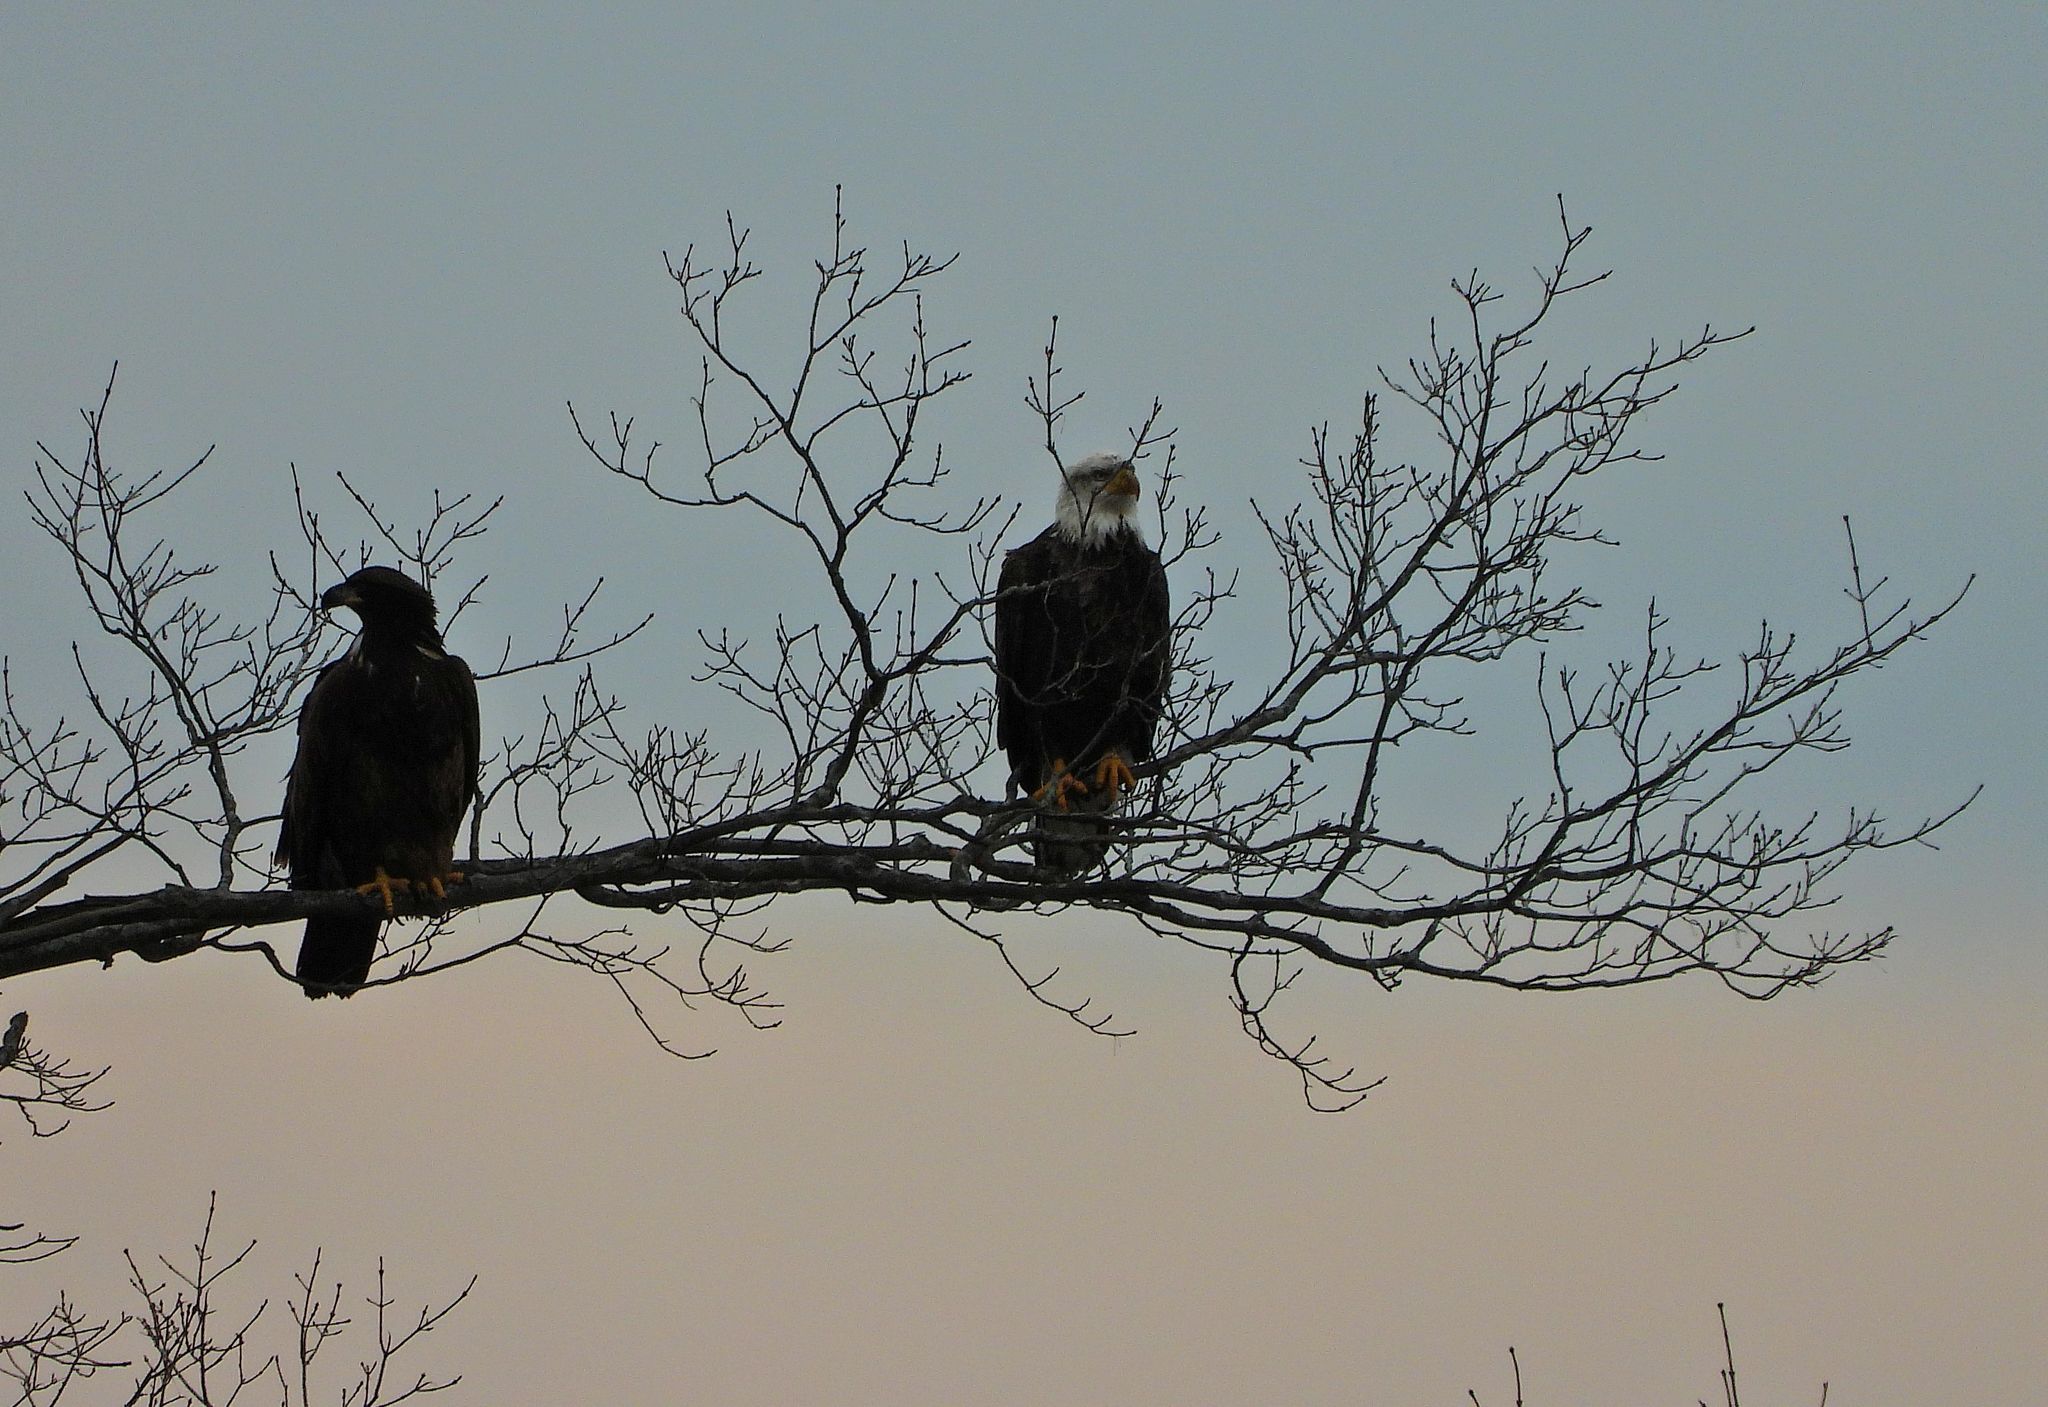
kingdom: Animalia
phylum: Chordata
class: Aves
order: Accipitriformes
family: Accipitridae
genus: Haliaeetus
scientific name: Haliaeetus leucocephalus
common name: Bald eagle
